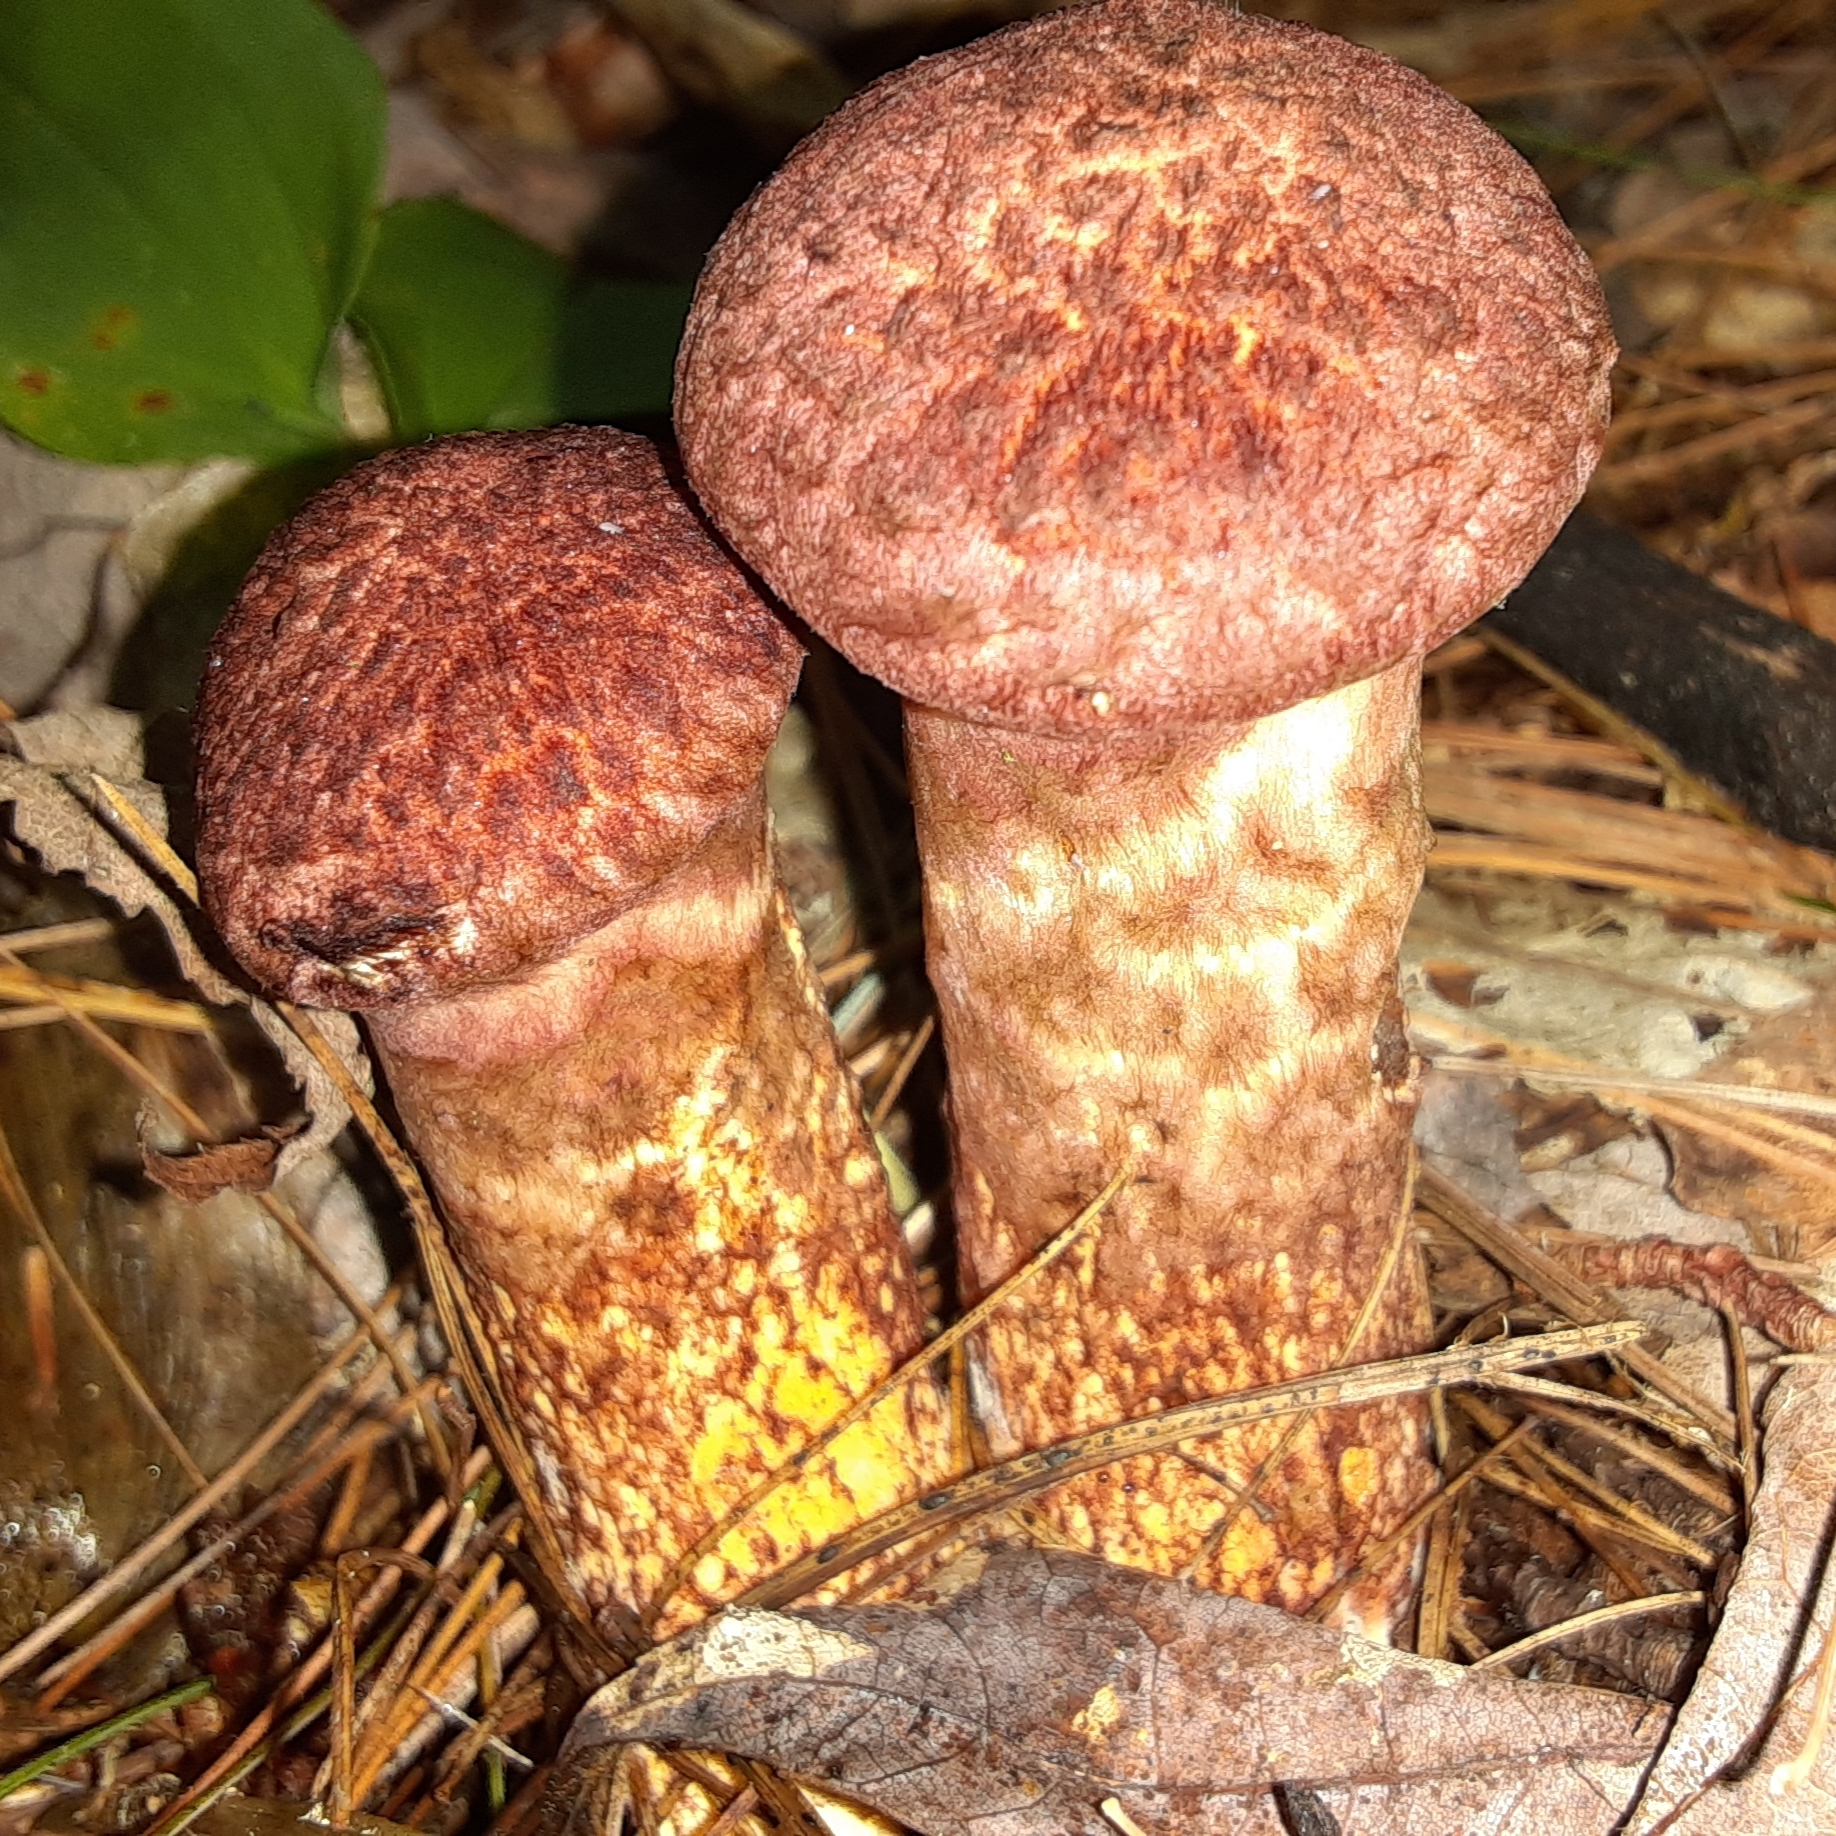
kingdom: Fungi
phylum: Basidiomycota
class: Agaricomycetes
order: Boletales
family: Suillaceae
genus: Suillus
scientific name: Suillus spraguei
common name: Painted suillus
